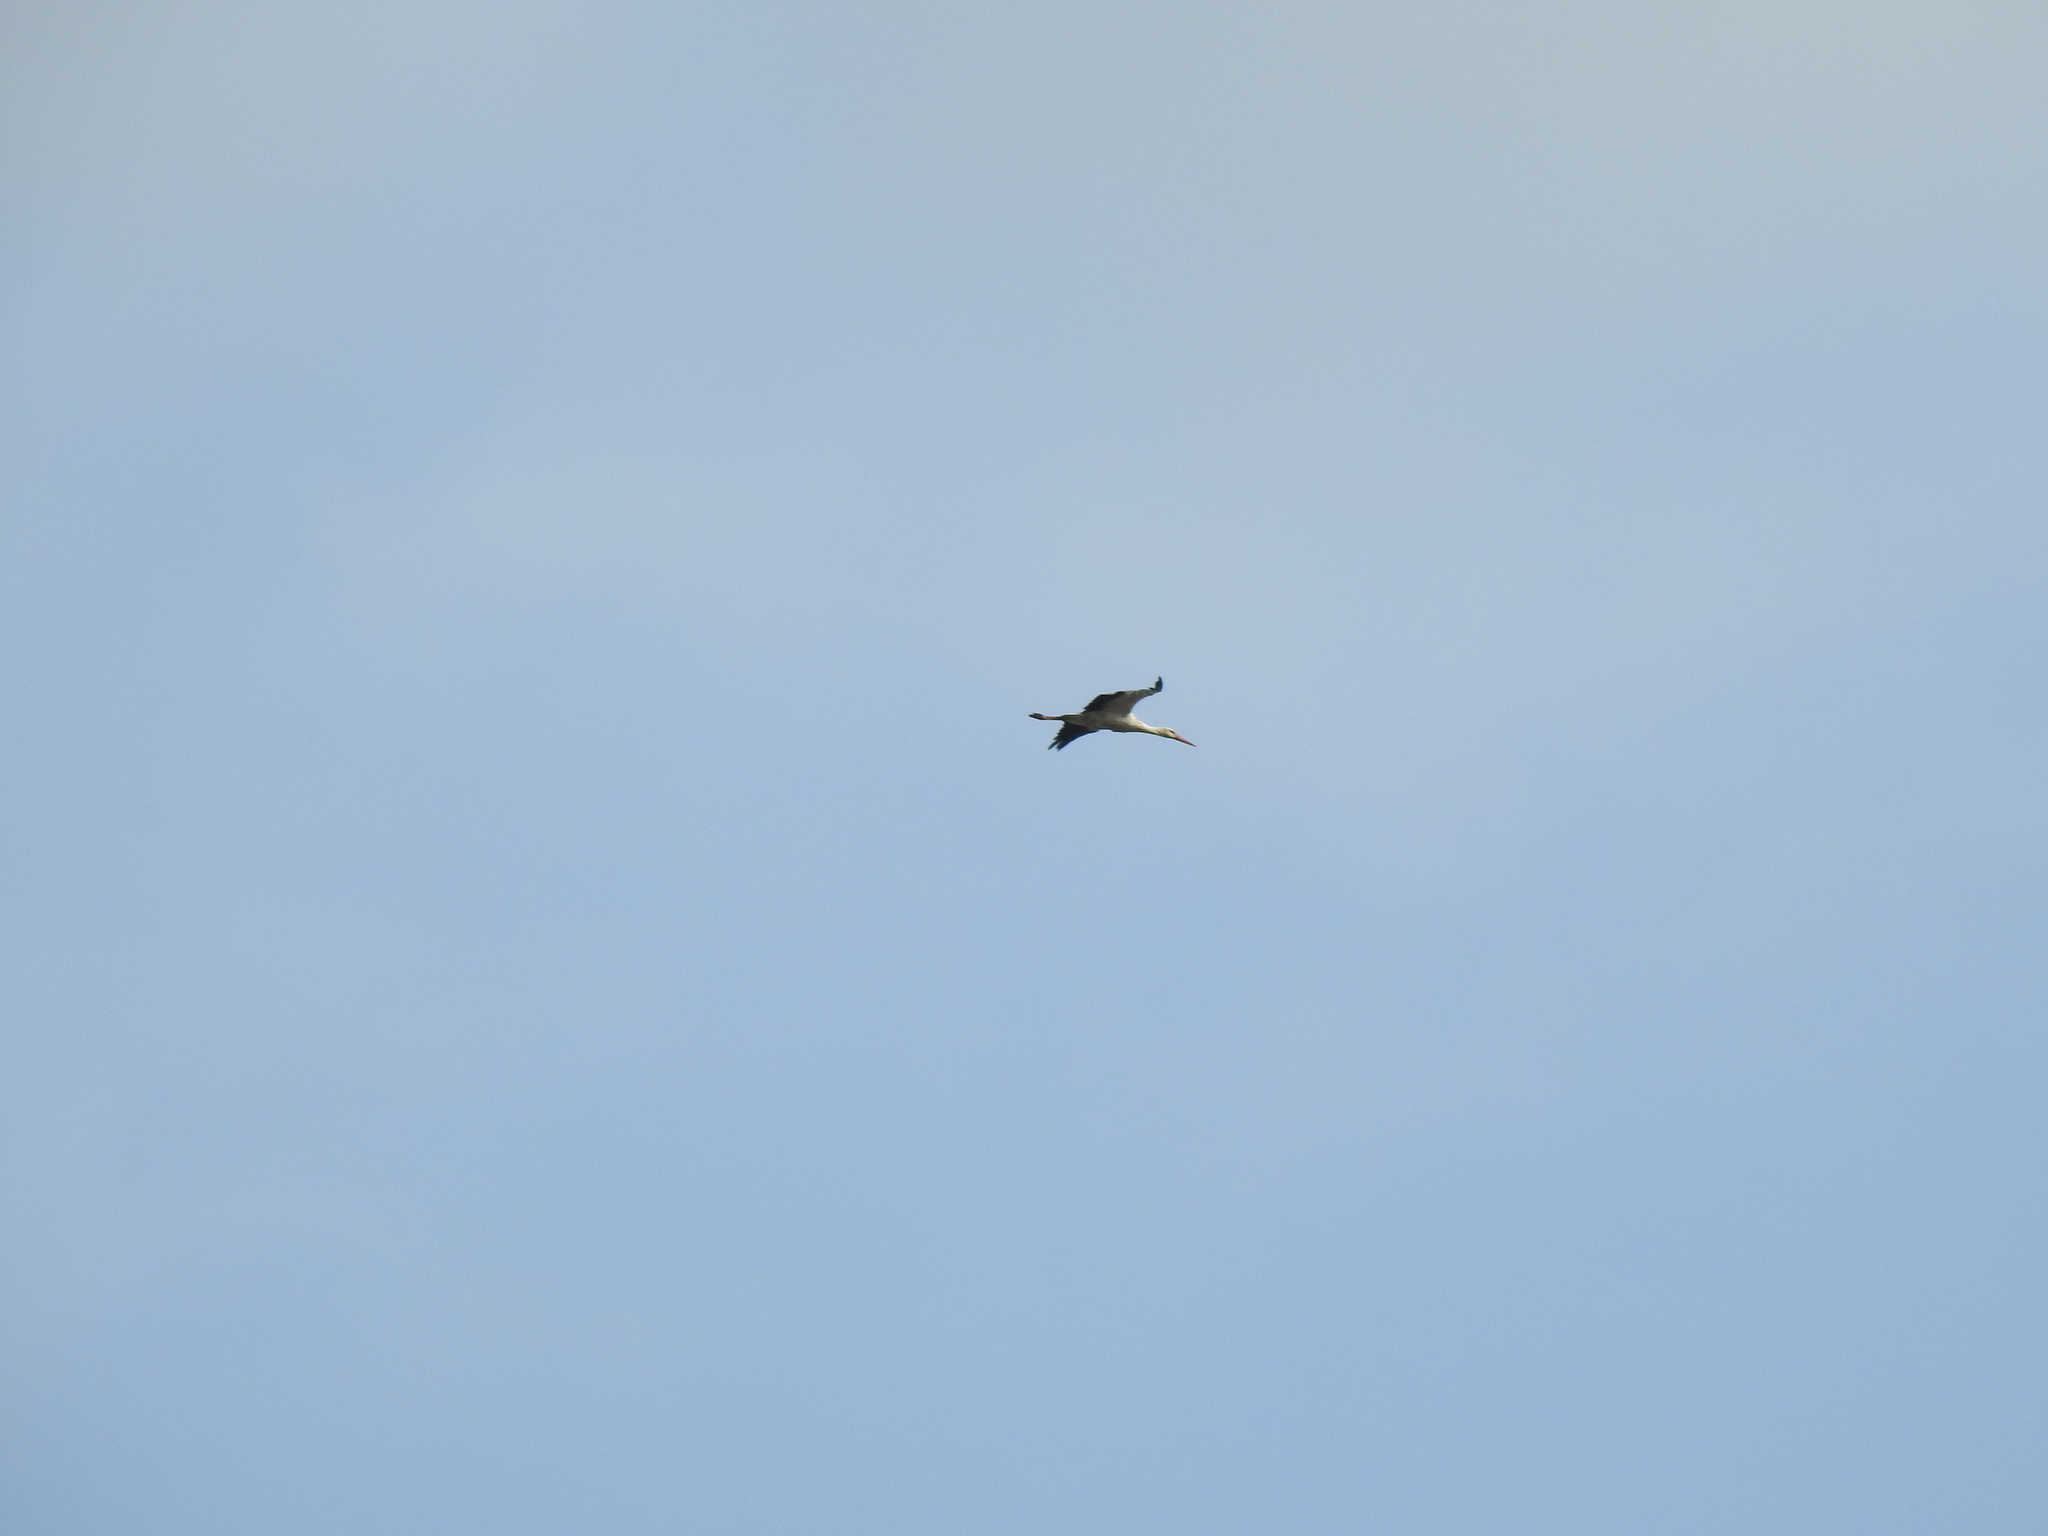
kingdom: Animalia
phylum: Chordata
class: Aves
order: Ciconiiformes
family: Ciconiidae
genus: Ciconia
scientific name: Ciconia ciconia
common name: White stork
